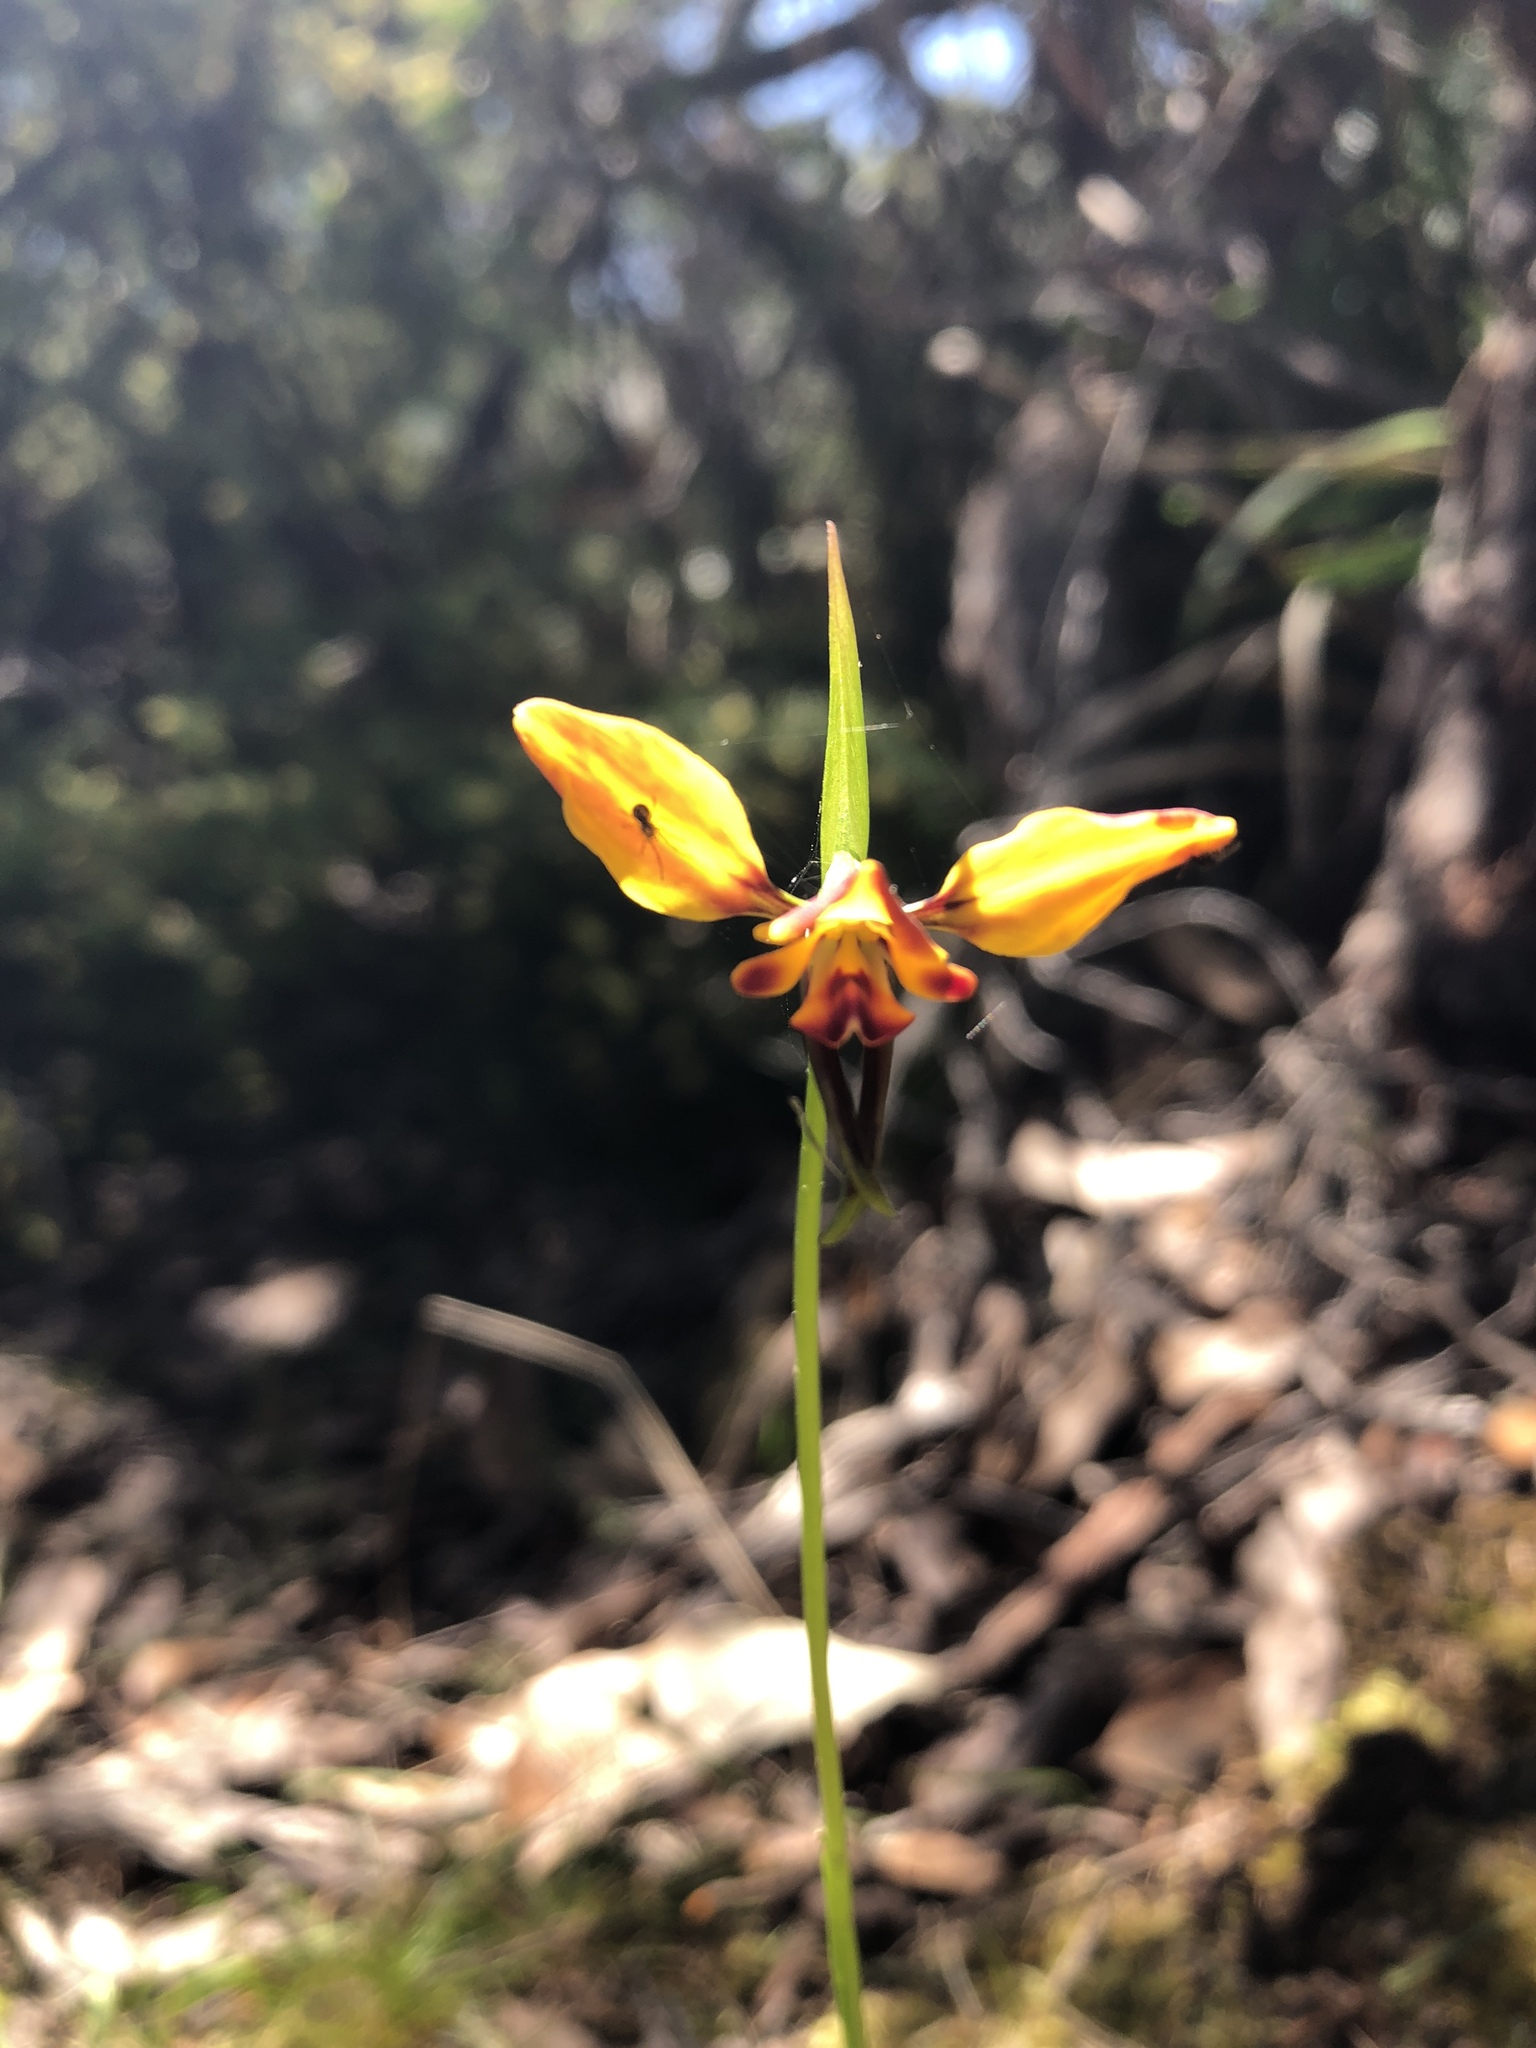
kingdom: Plantae
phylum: Tracheophyta
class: Liliopsida
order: Asparagales
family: Orchidaceae
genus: Diuris
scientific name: Diuris orientis
